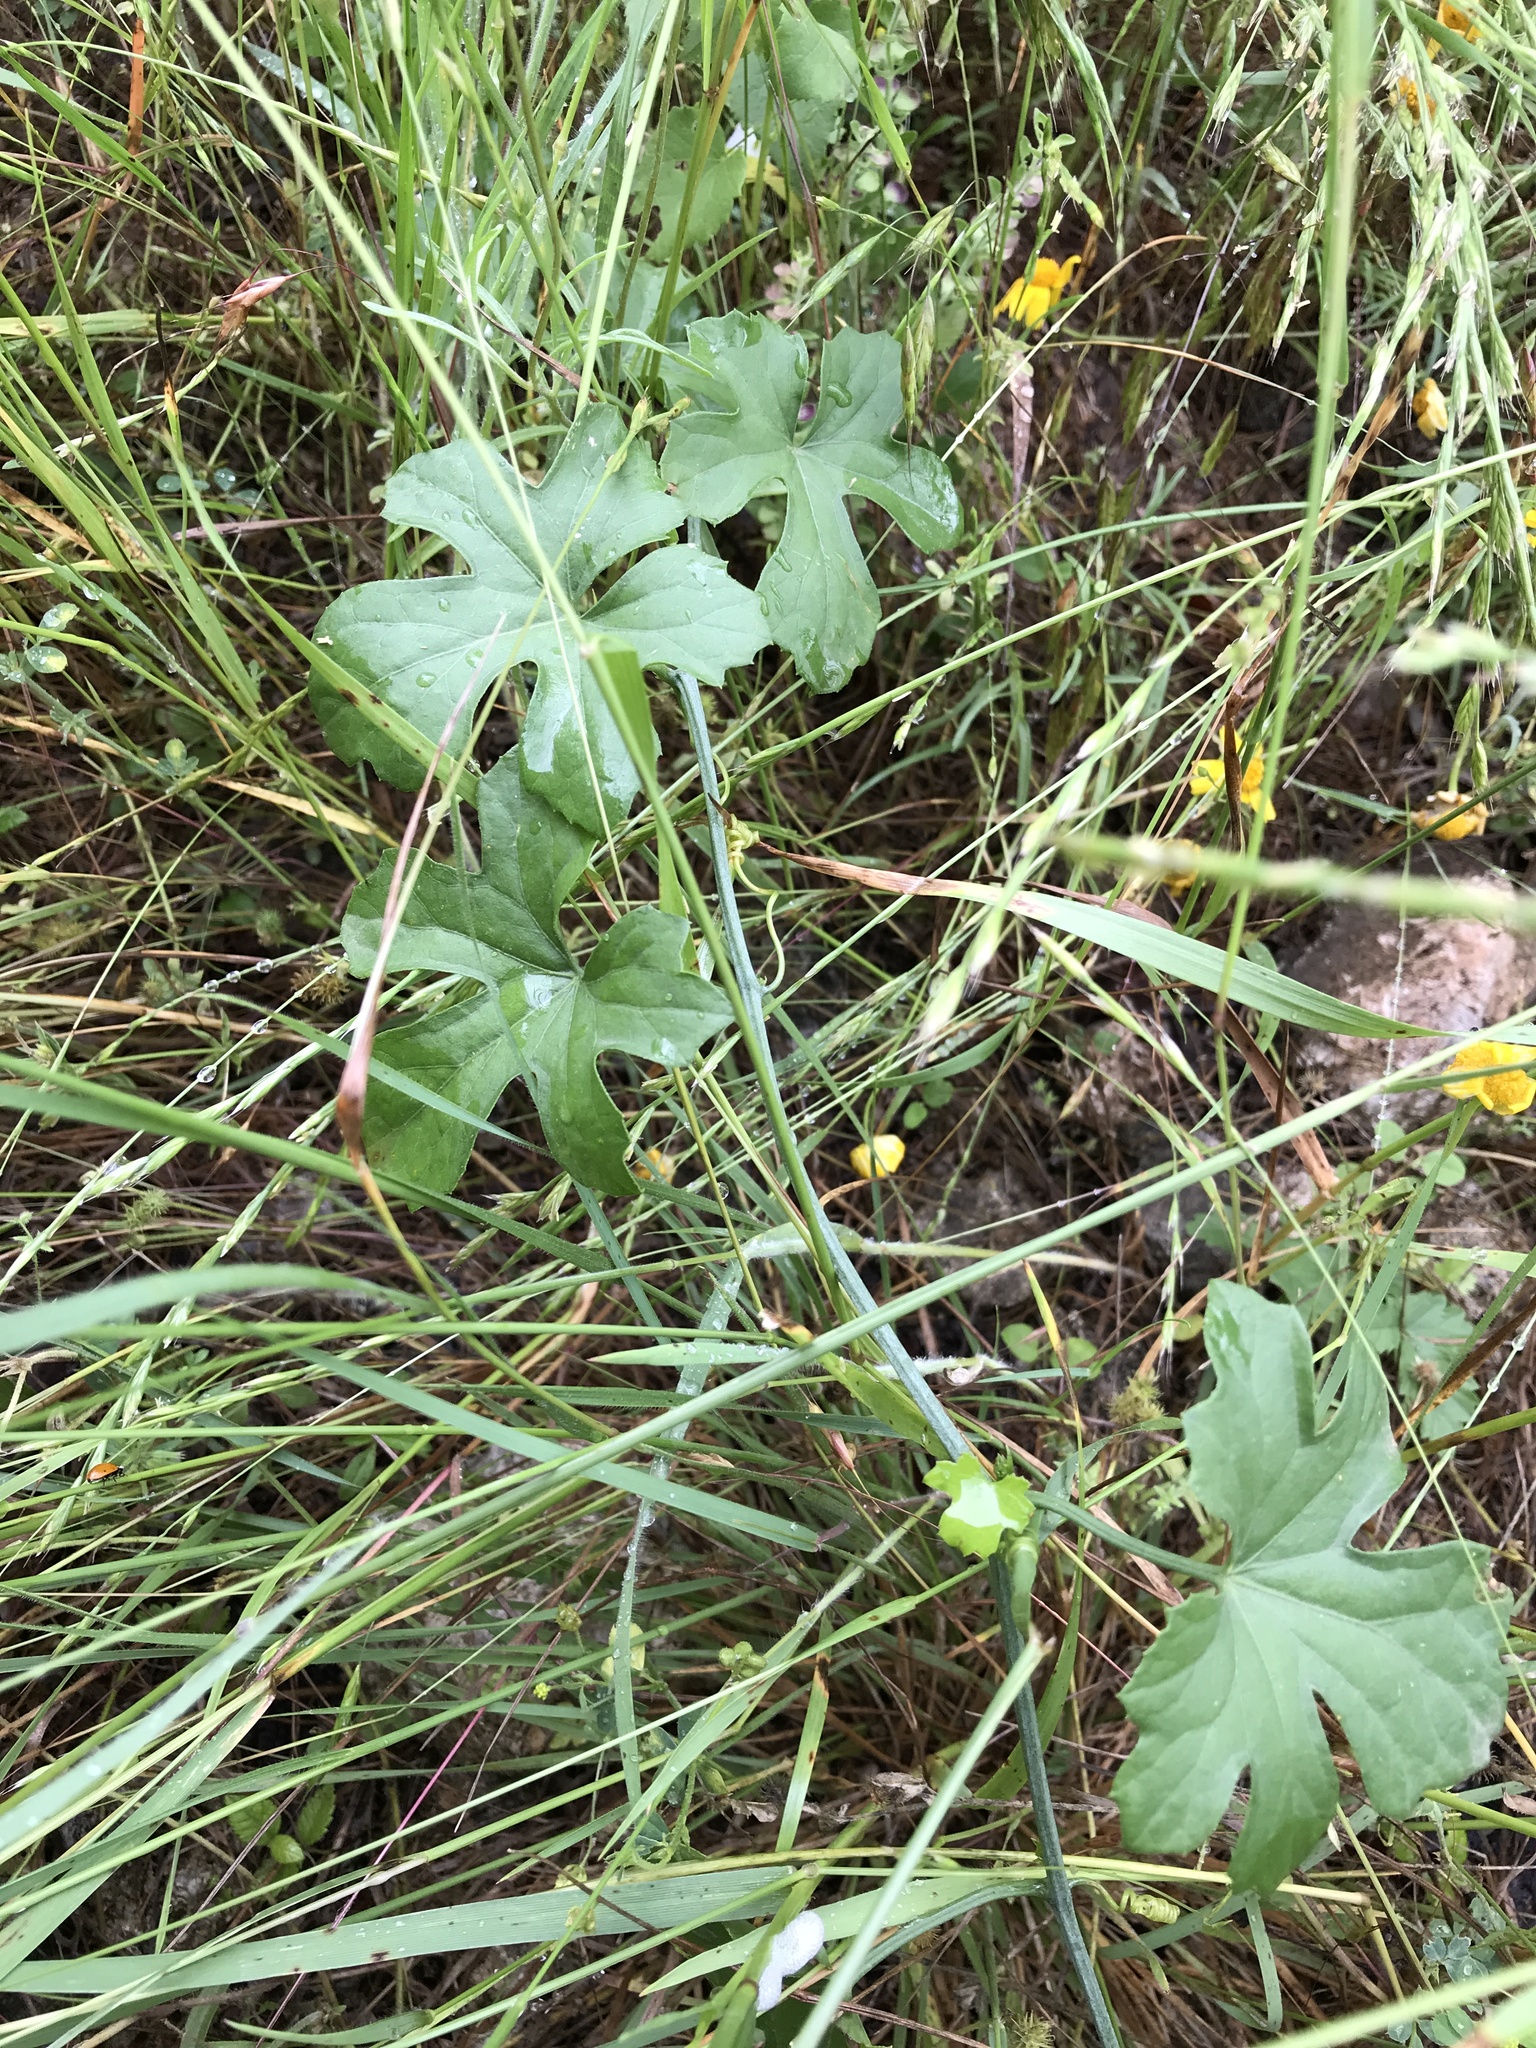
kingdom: Plantae
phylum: Tracheophyta
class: Magnoliopsida
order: Cucurbitales
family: Cucurbitaceae
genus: Ibervillea
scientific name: Ibervillea lindheimeri
